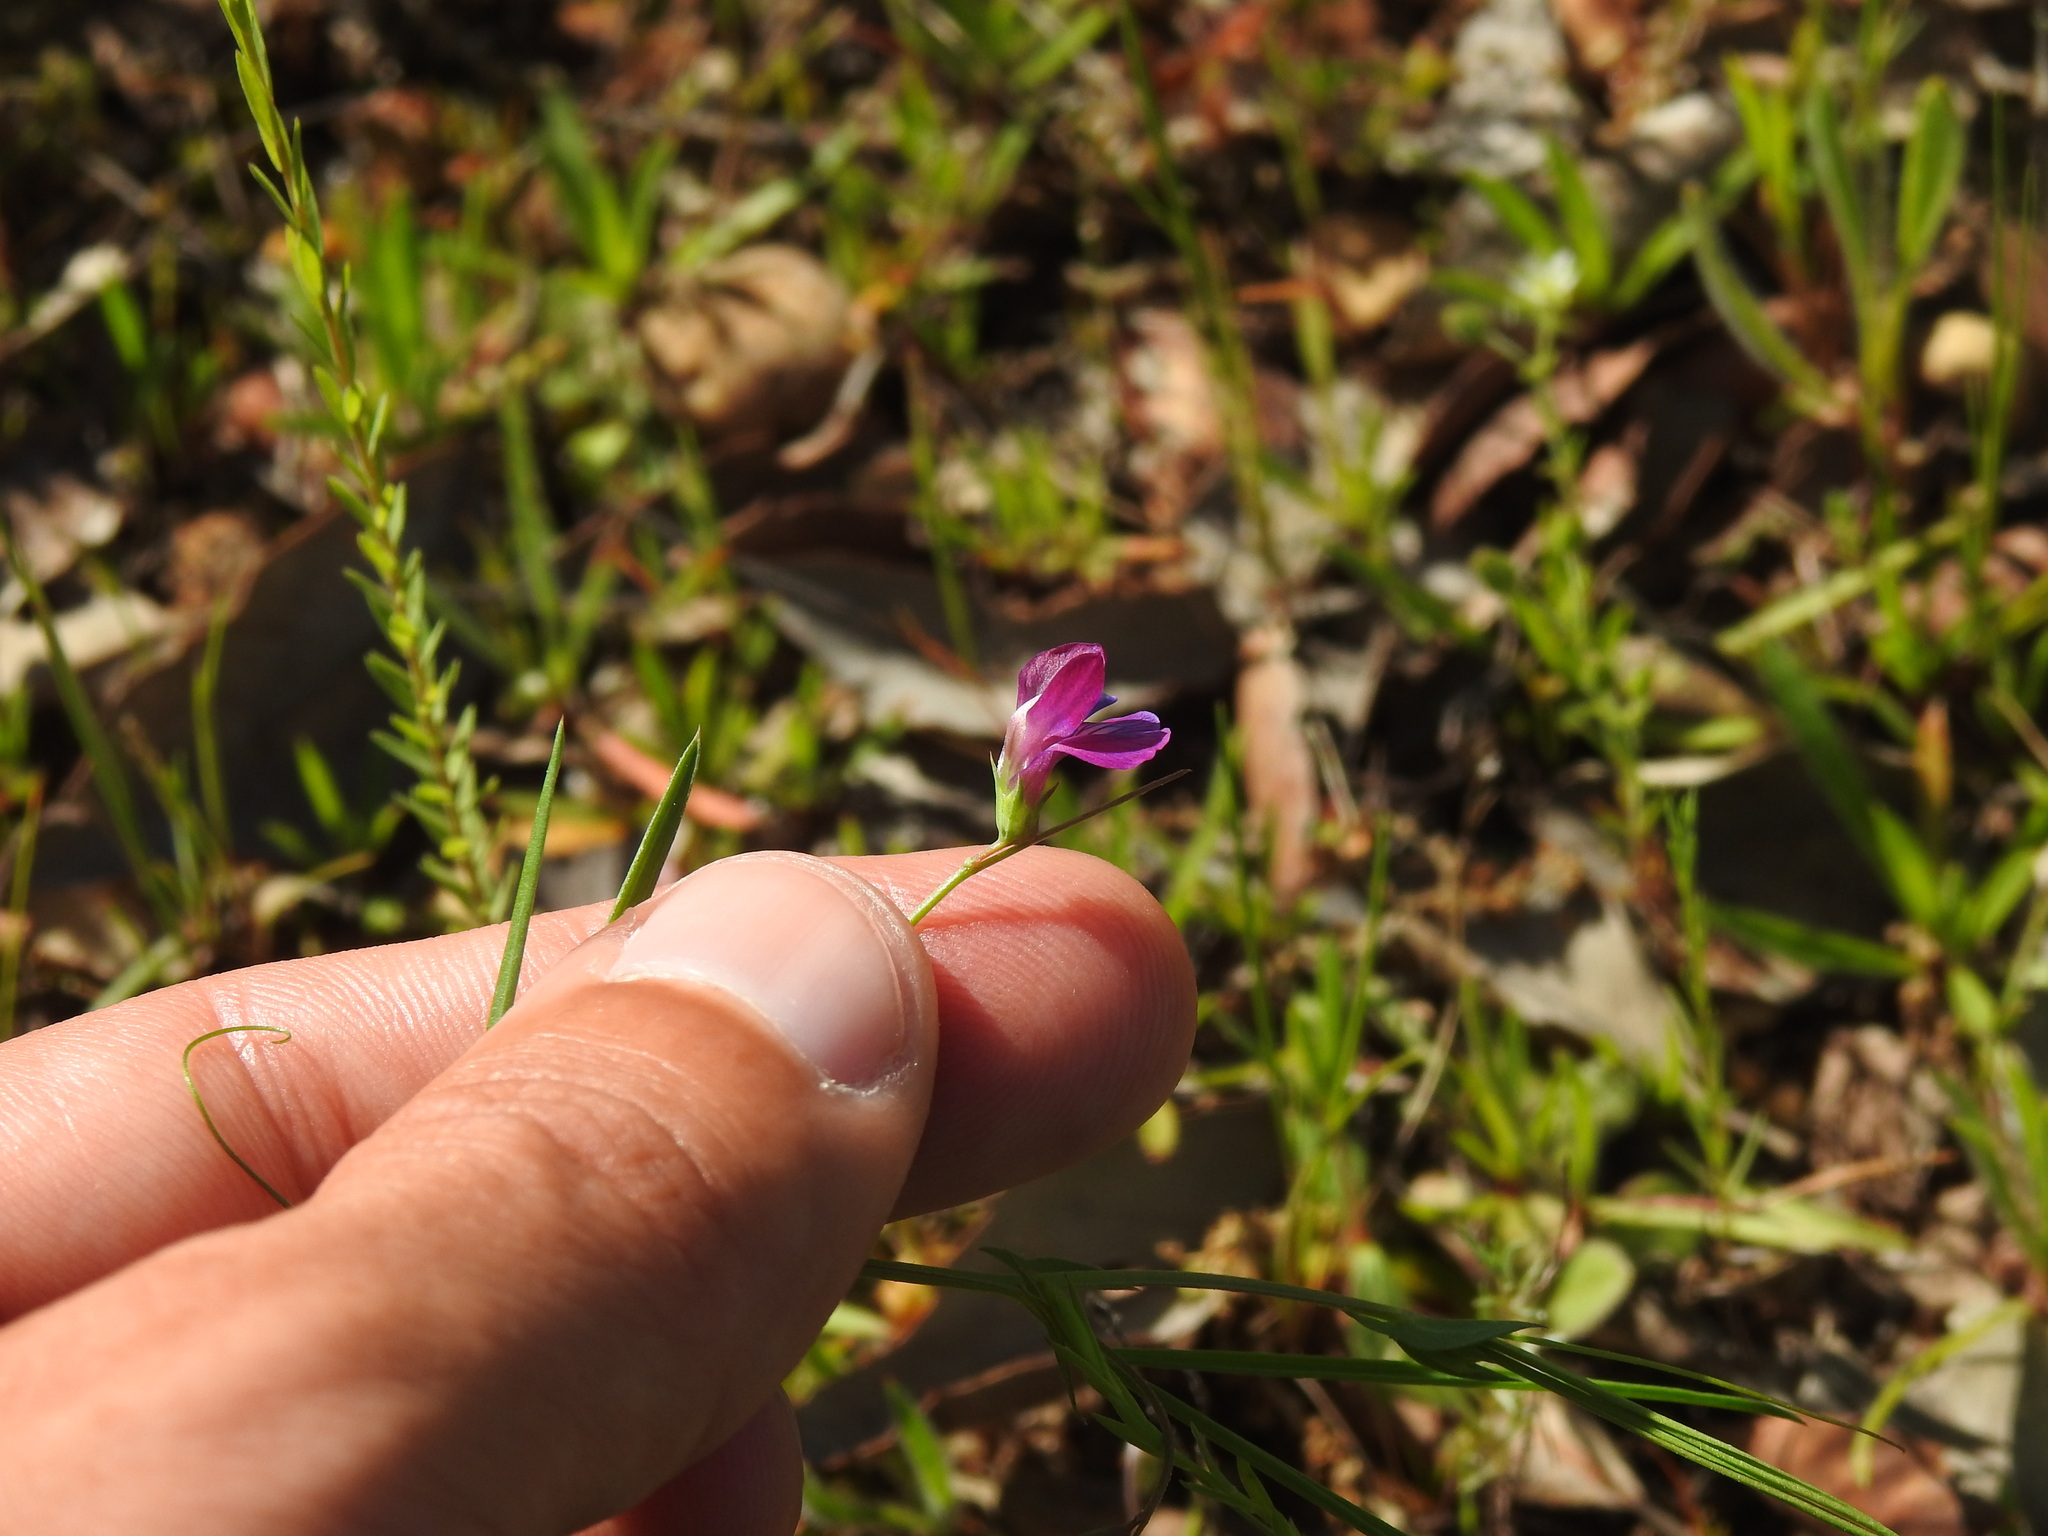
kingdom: Plantae
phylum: Tracheophyta
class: Magnoliopsida
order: Fabales
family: Fabaceae
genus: Lathyrus
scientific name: Lathyrus angulatus
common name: Angular pea
